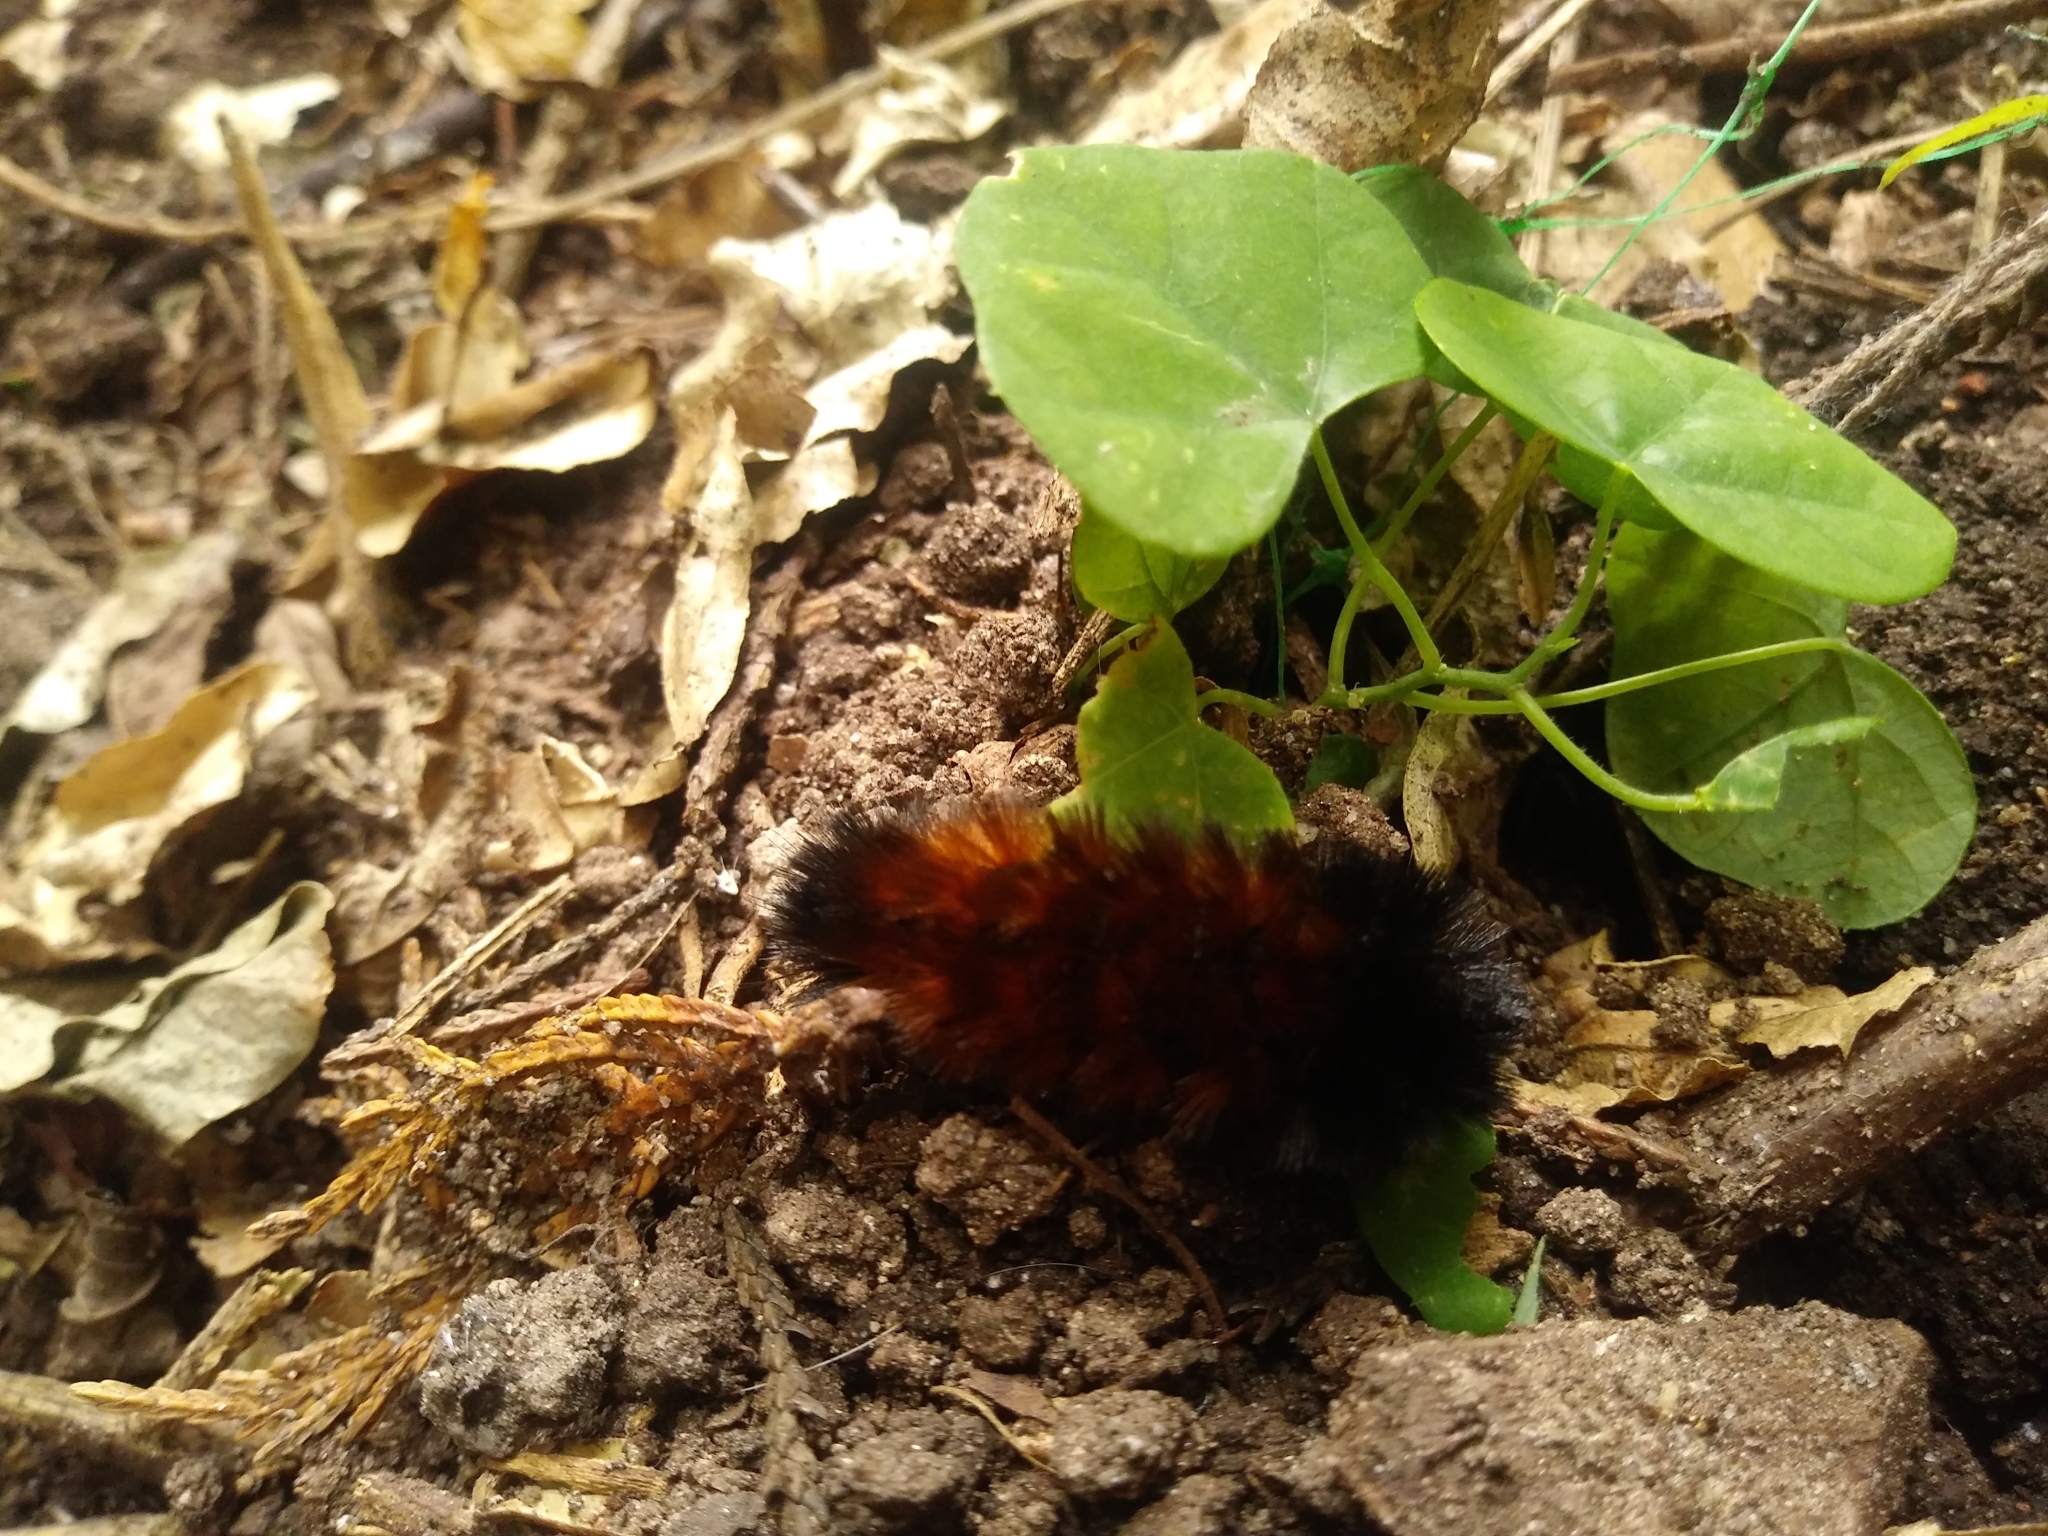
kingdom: Animalia
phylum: Arthropoda
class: Insecta
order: Lepidoptera
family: Erebidae
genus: Pyrrharctia
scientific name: Pyrrharctia isabella
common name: Isabella tiger moth
